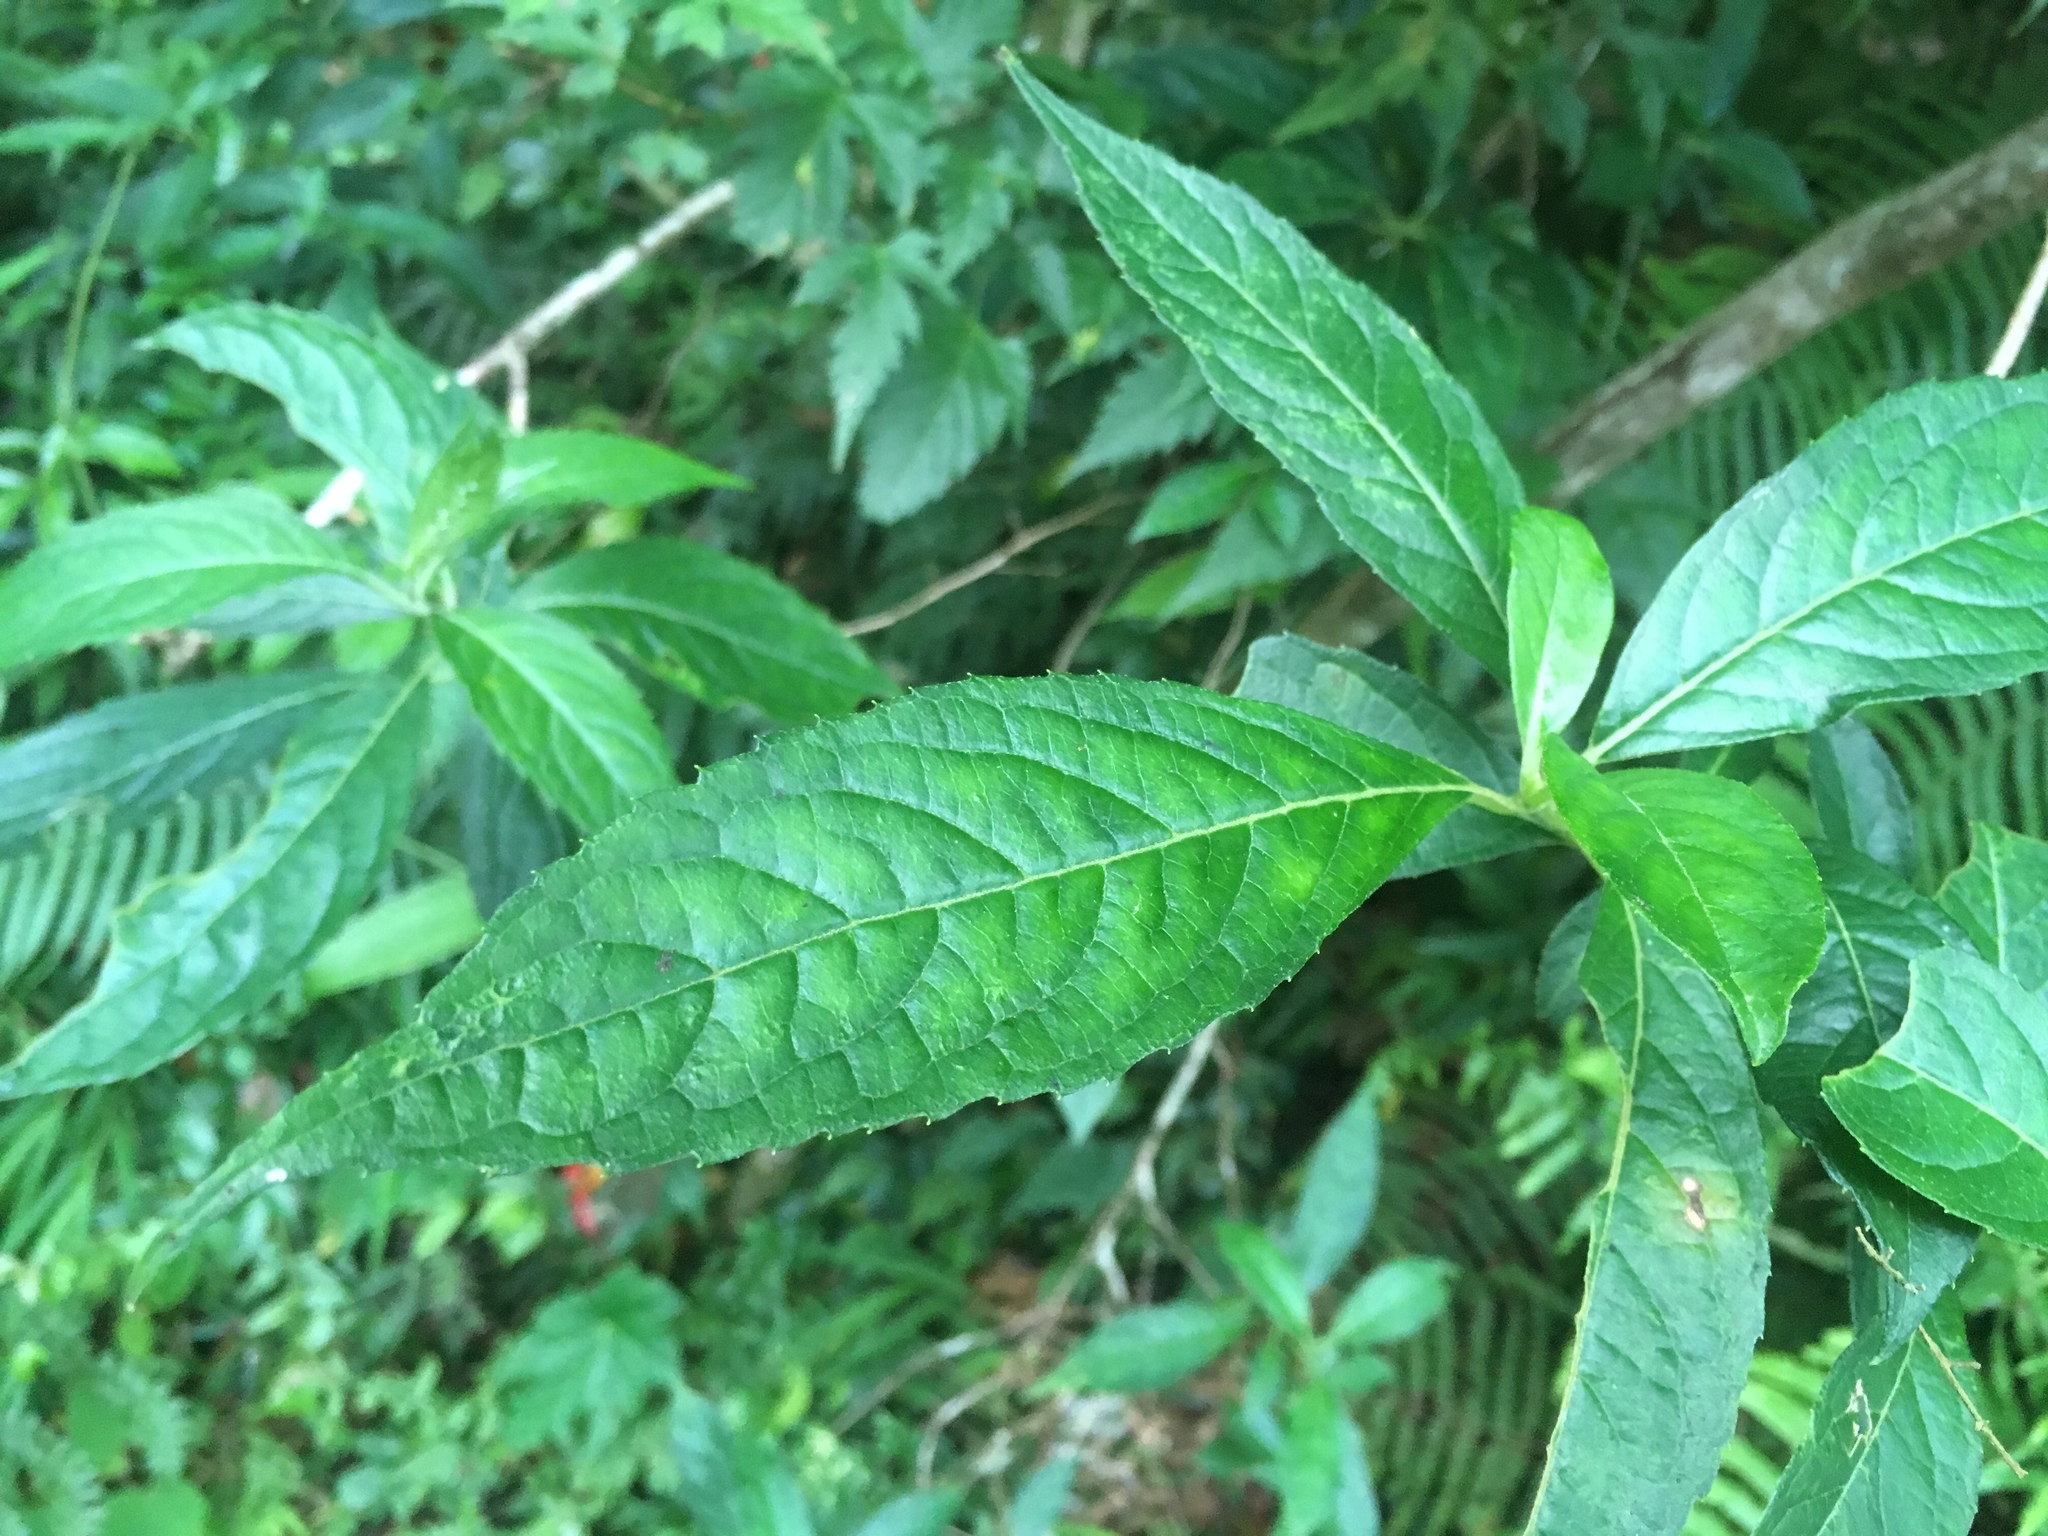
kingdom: Plantae
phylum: Tracheophyta
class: Magnoliopsida
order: Cornales
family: Hydrangeaceae
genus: Hydrangea
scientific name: Hydrangea chinensis
